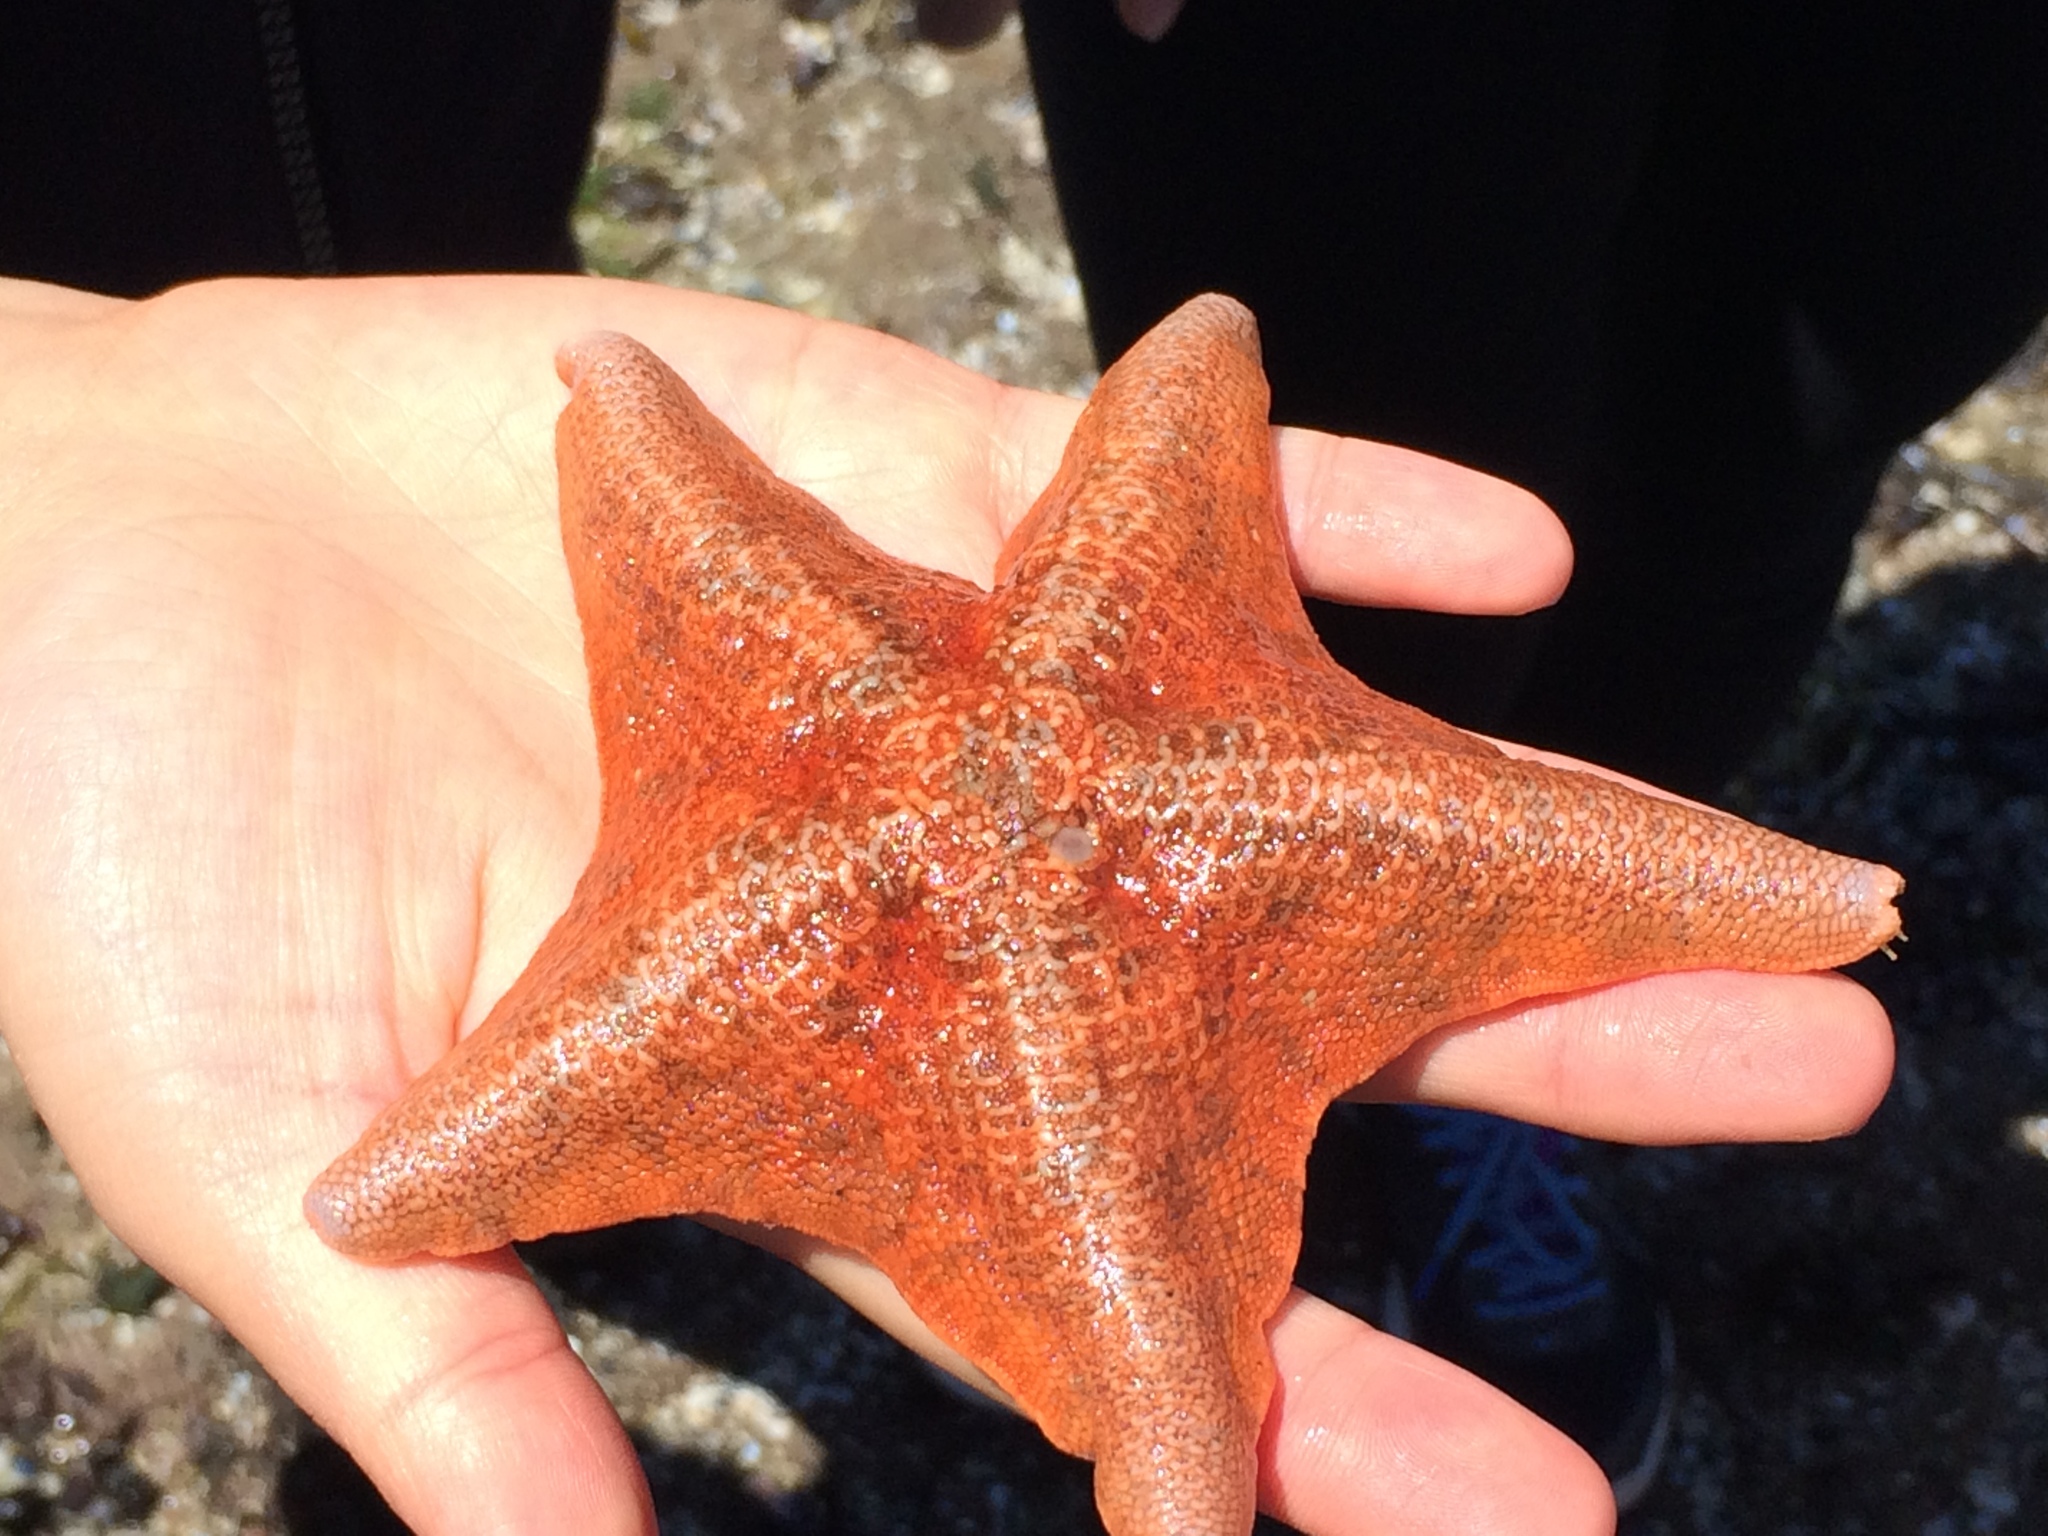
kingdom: Animalia
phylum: Echinodermata
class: Asteroidea
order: Valvatida
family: Asterinidae
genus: Patiria
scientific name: Patiria miniata
